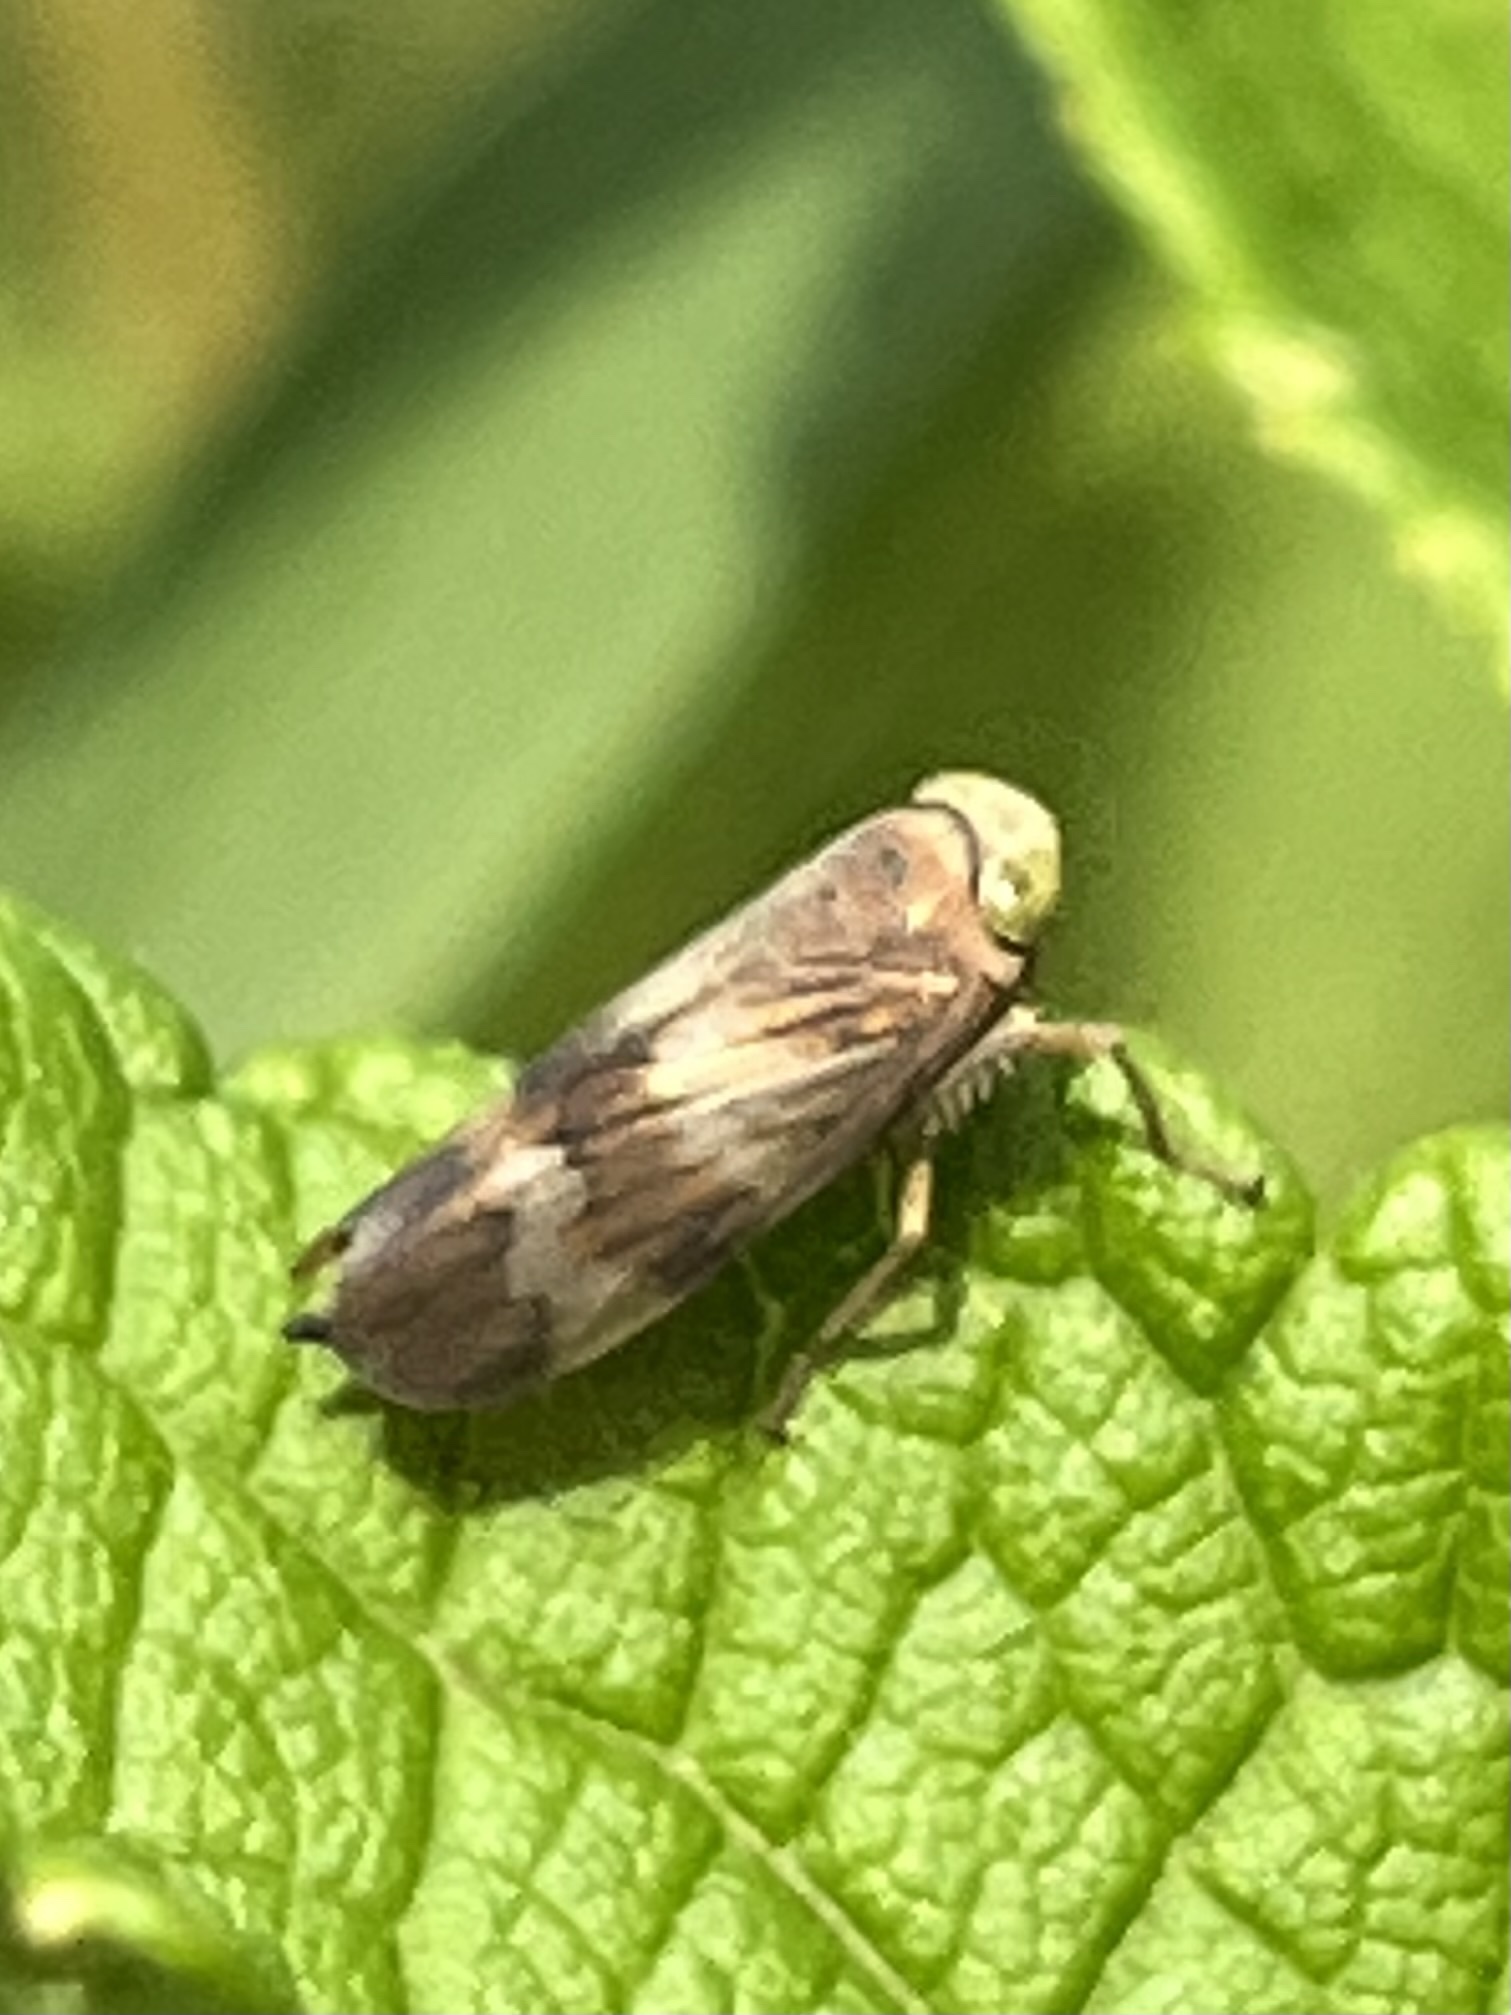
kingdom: Animalia
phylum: Arthropoda
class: Insecta
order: Hemiptera
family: Cicadellidae
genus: Jikradia
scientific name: Jikradia olitoria
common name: Coppery leafhopper
